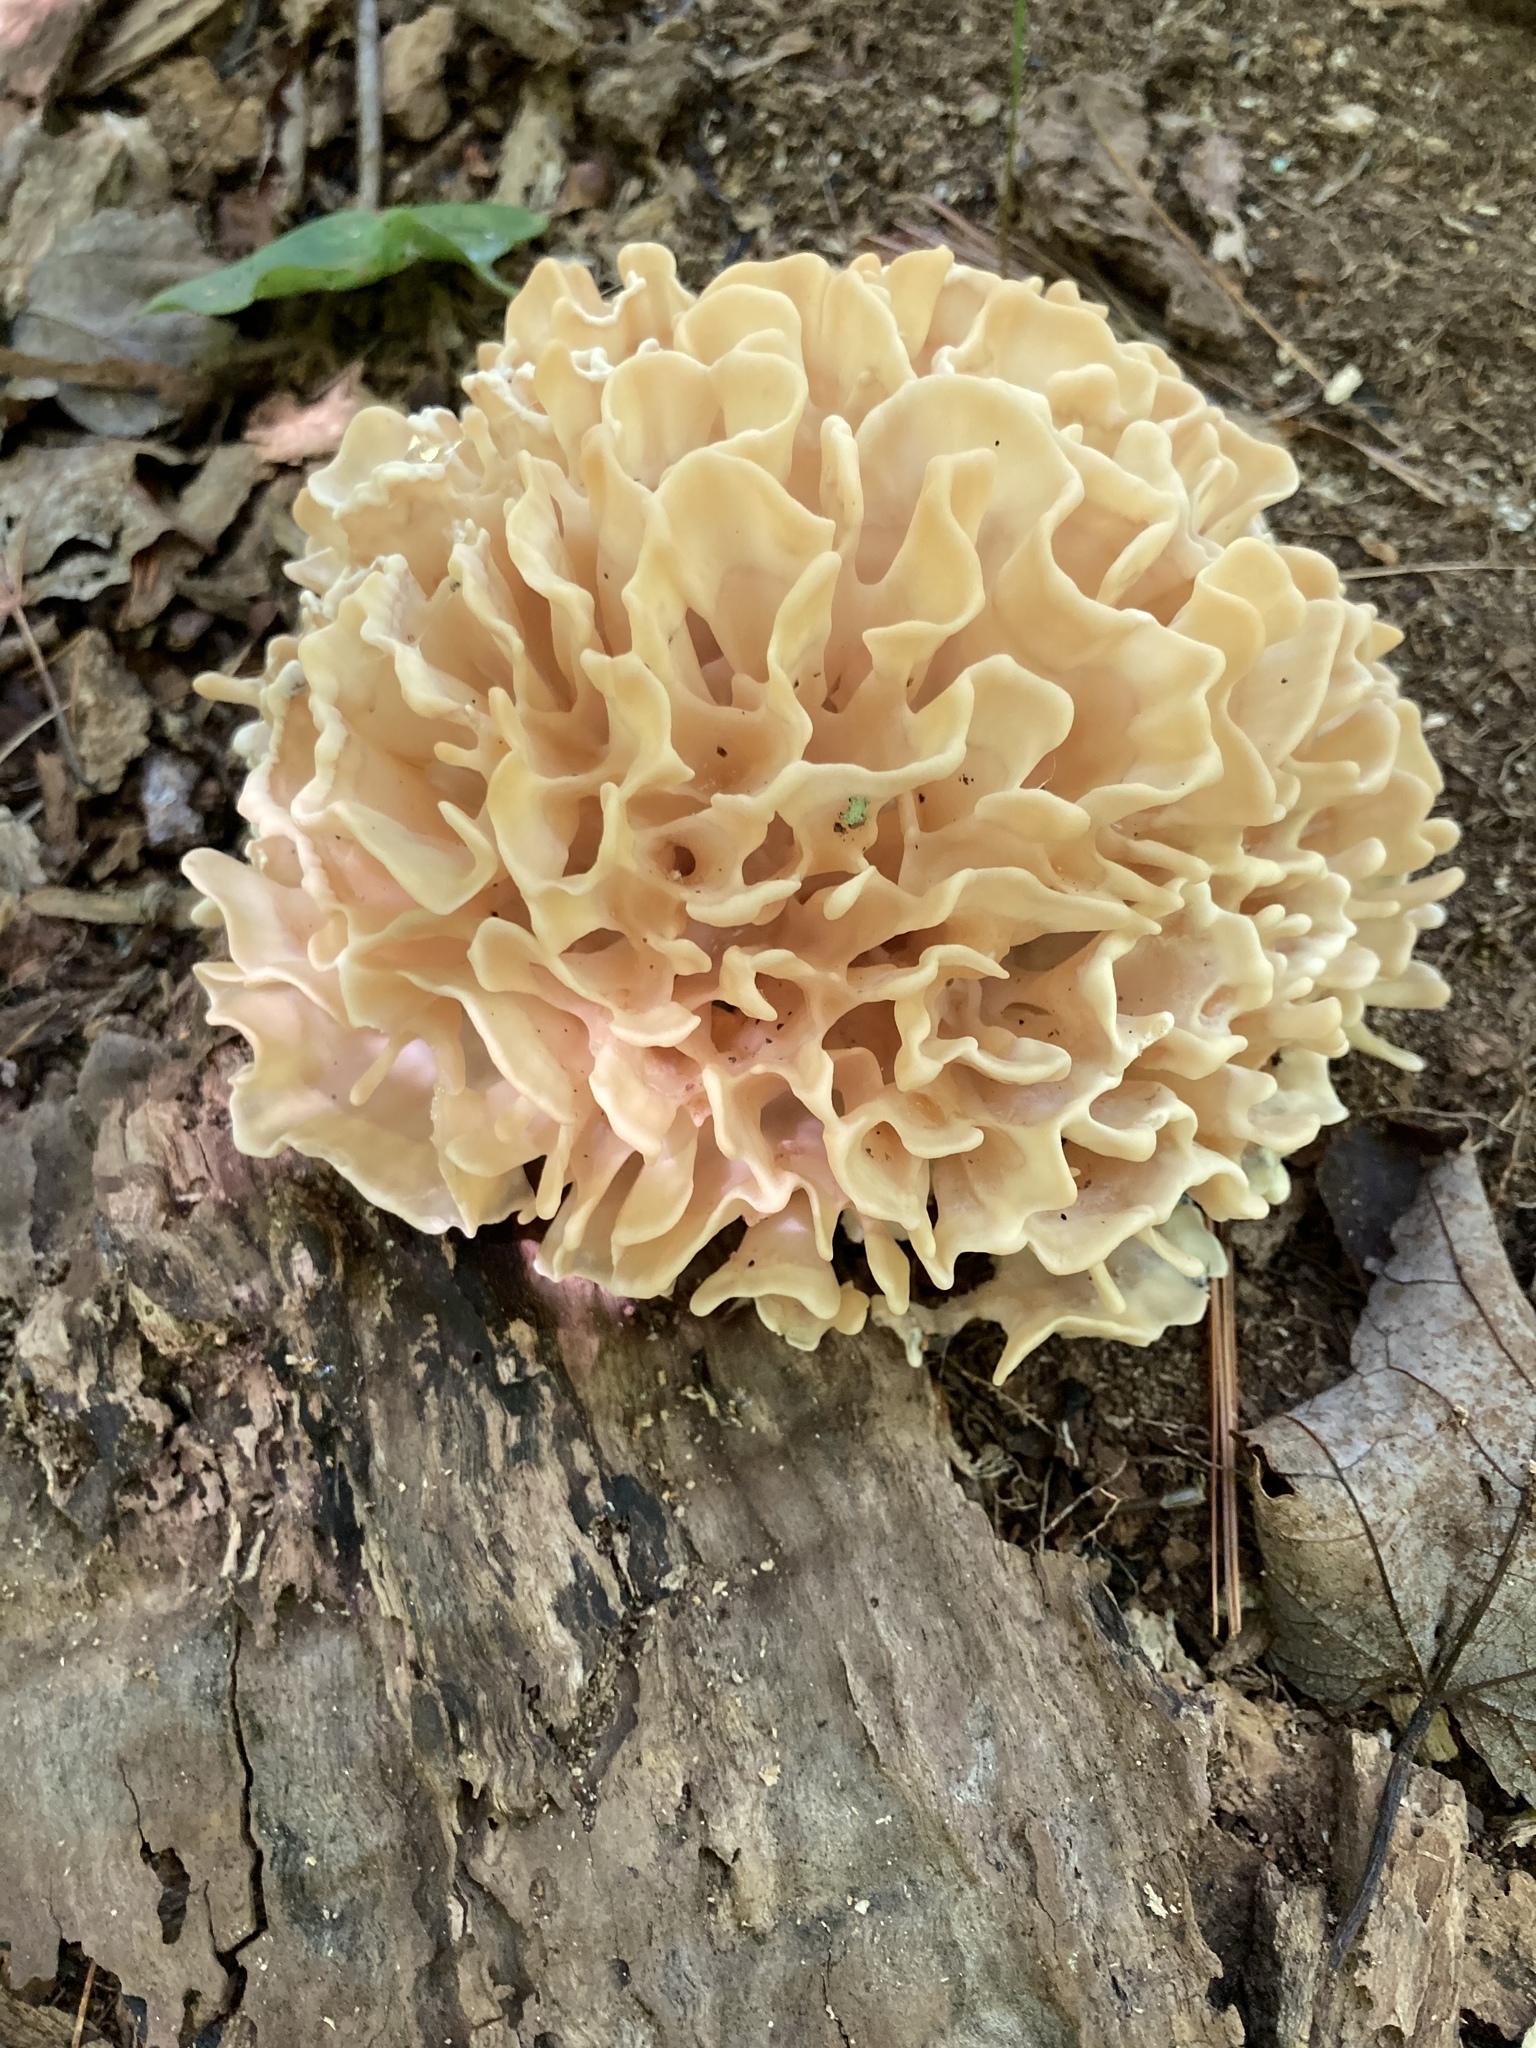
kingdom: Fungi
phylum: Basidiomycota
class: Agaricomycetes
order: Polyporales
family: Sparassidaceae
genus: Sparassis
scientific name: Sparassis spathulata
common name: Eastern cauliflower mushroom
